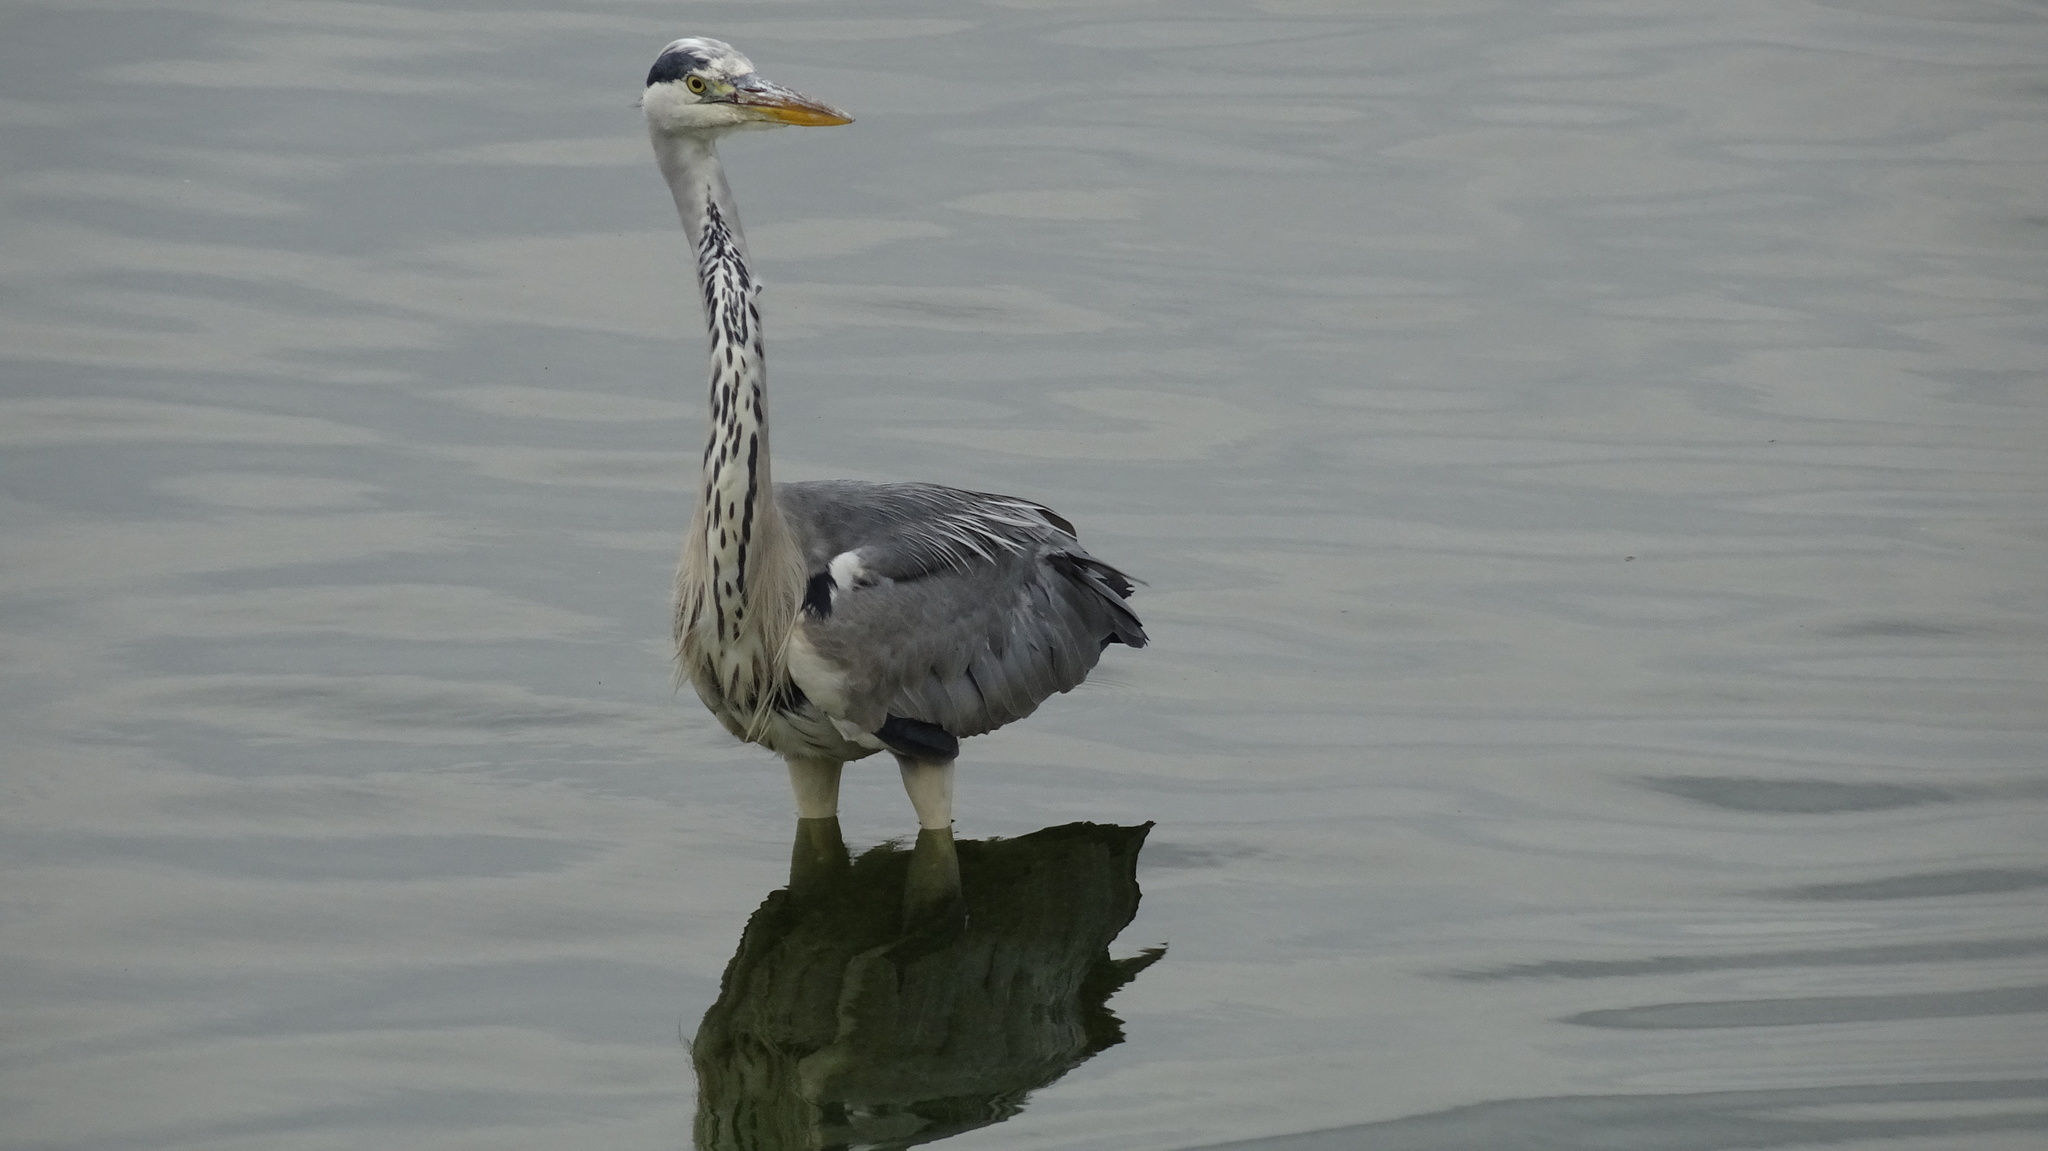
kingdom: Animalia
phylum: Chordata
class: Aves
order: Pelecaniformes
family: Ardeidae
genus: Ardea
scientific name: Ardea cinerea
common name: Grey heron
